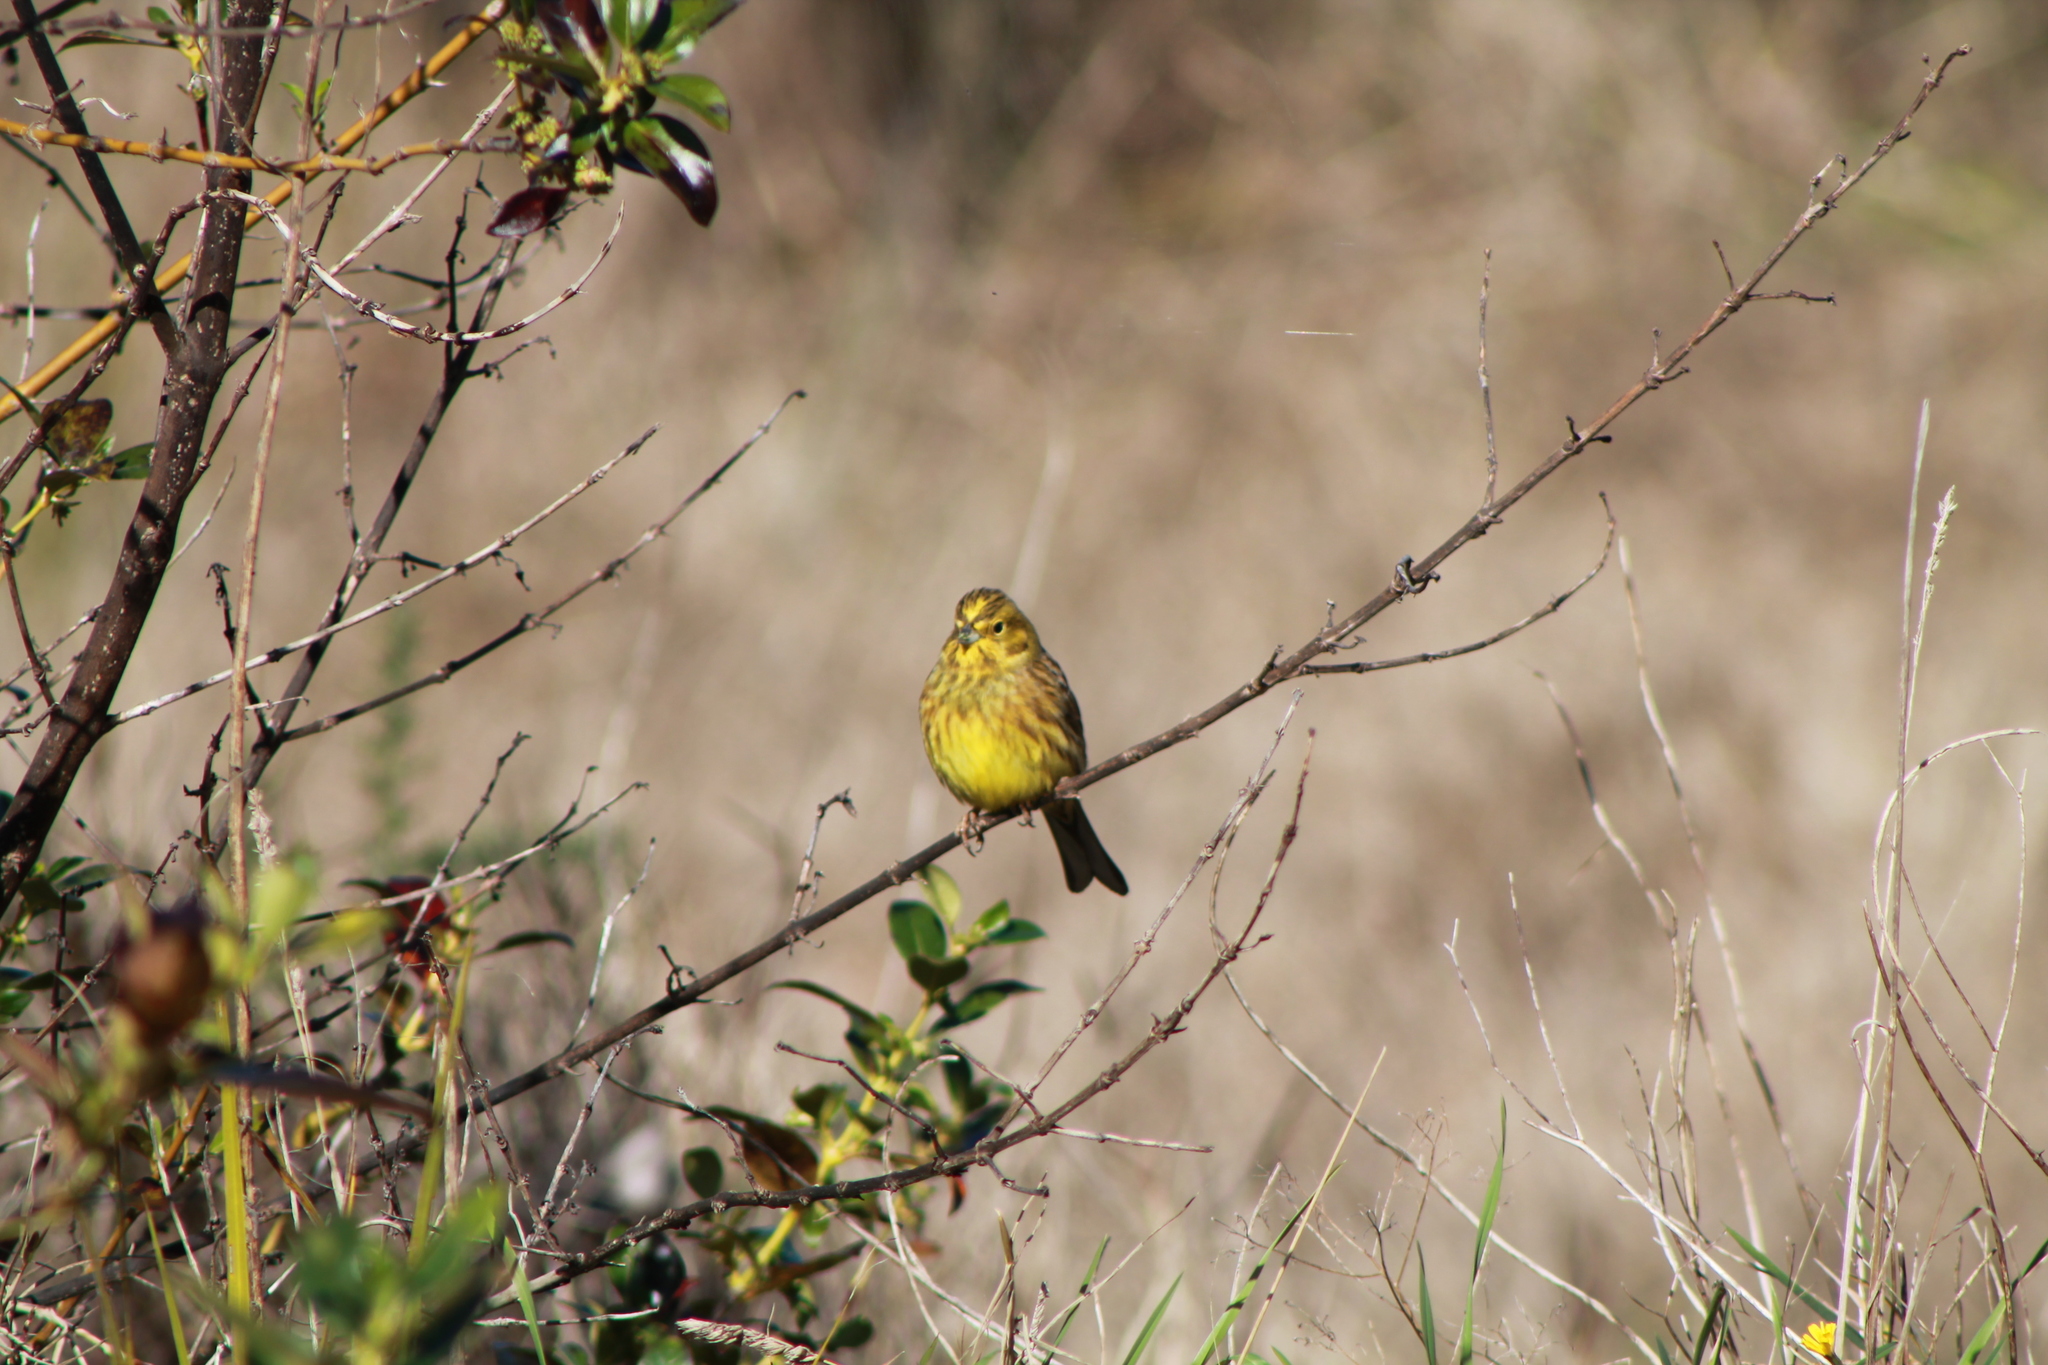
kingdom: Animalia
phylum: Chordata
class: Aves
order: Passeriformes
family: Emberizidae
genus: Emberiza
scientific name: Emberiza citrinella
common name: Yellowhammer
